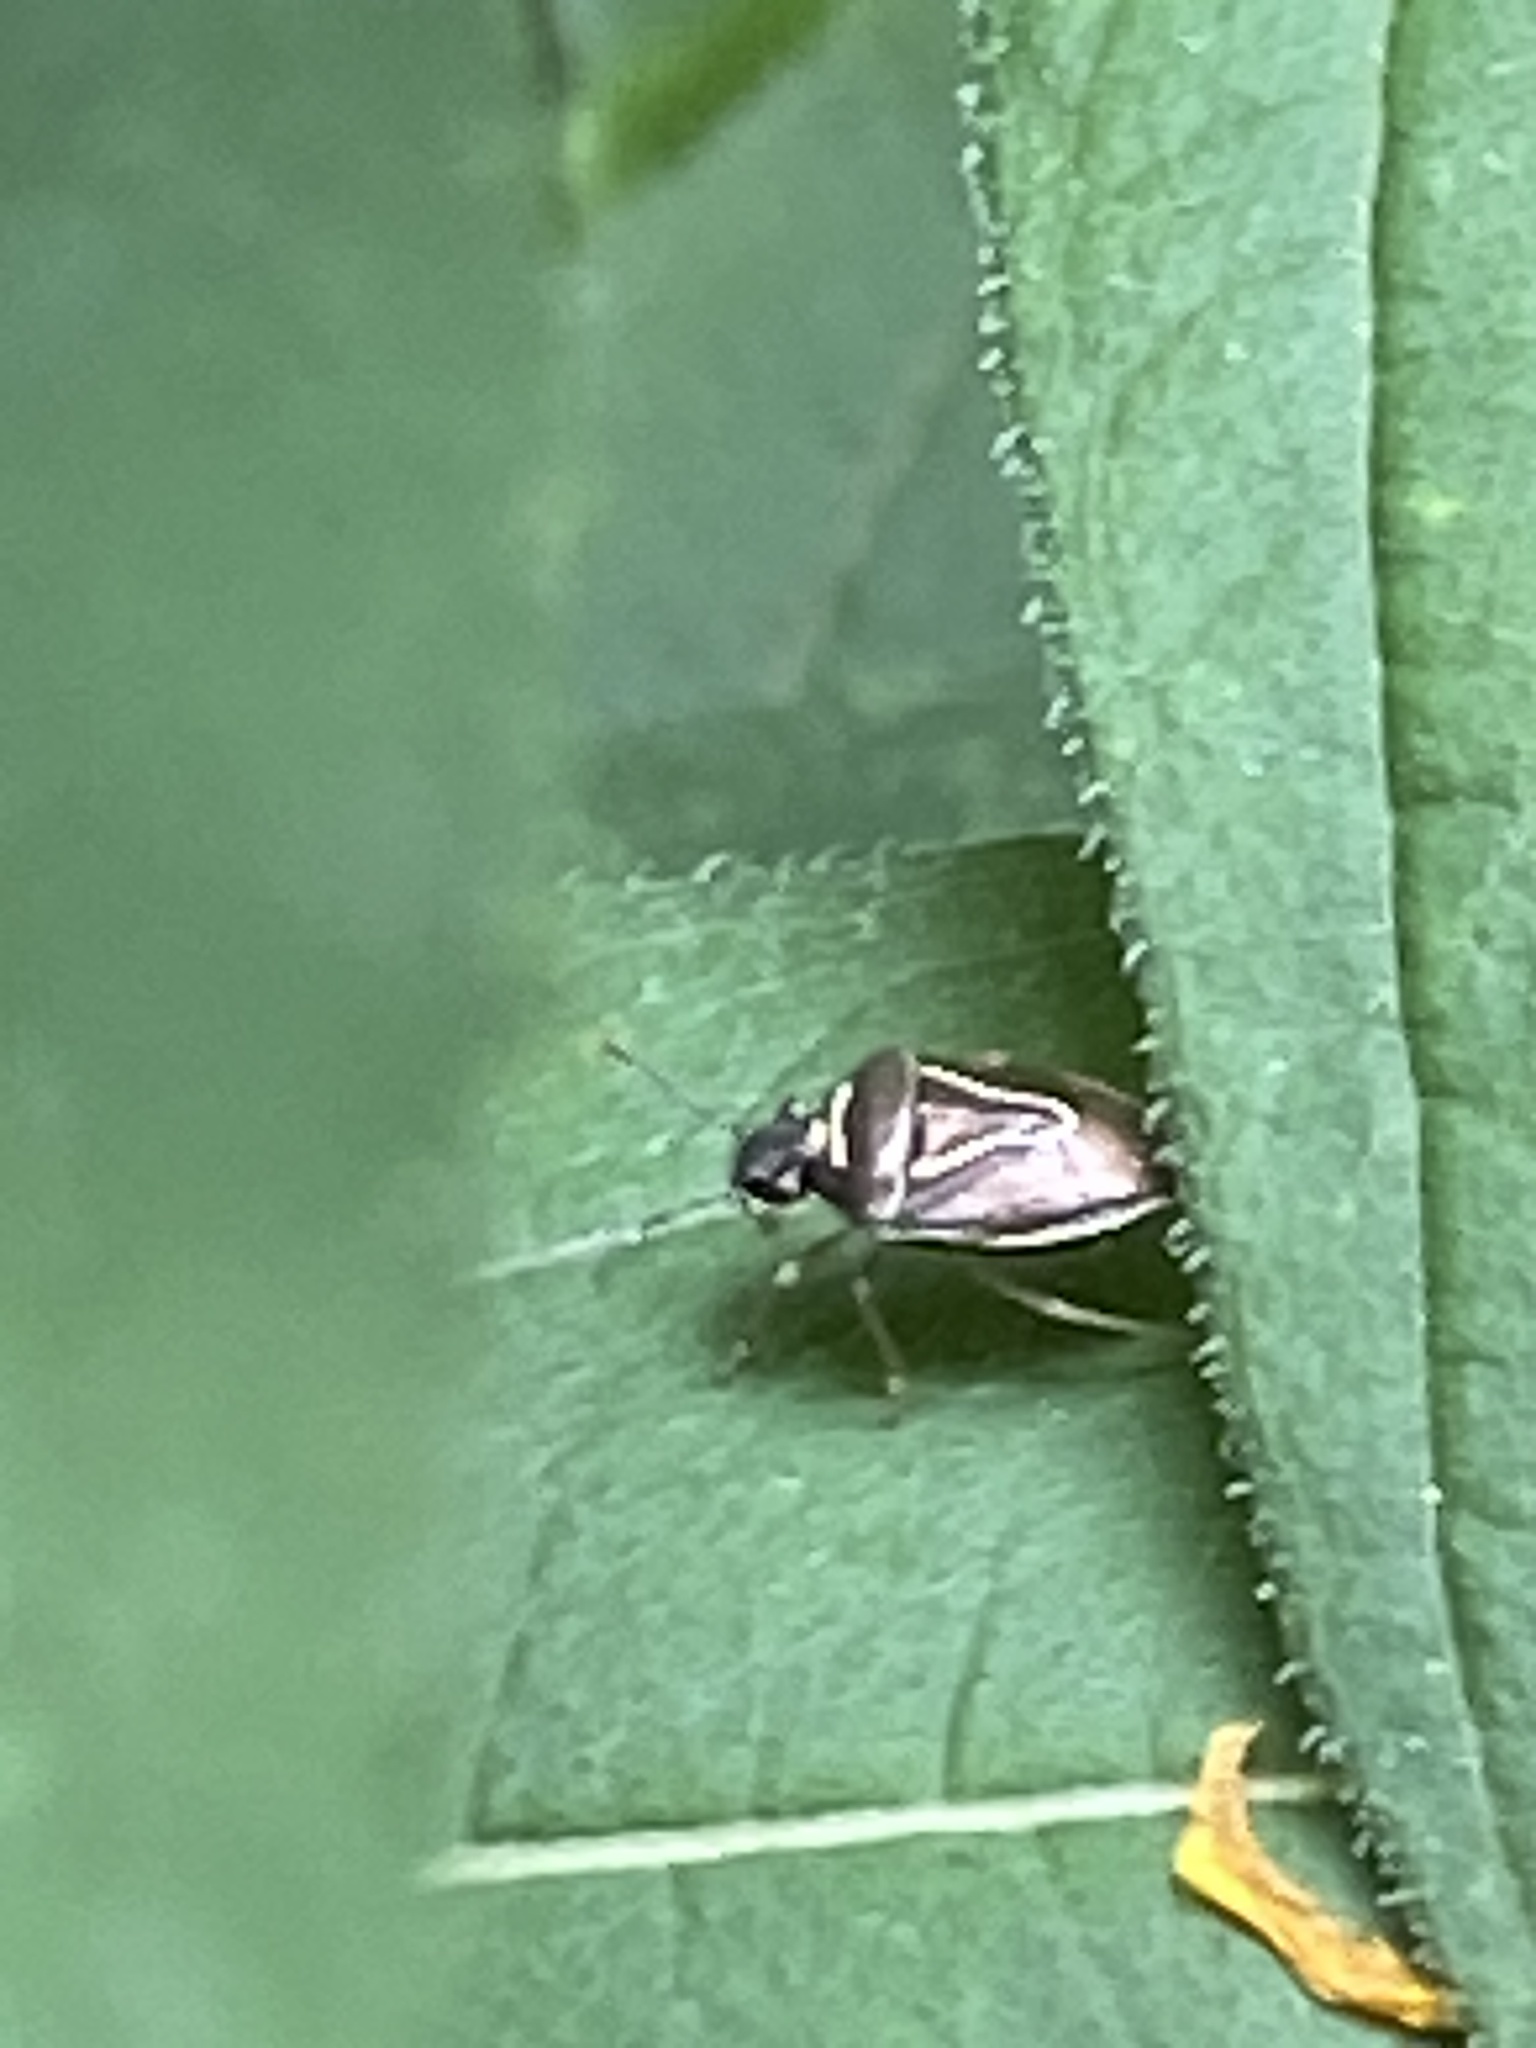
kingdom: Animalia
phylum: Arthropoda
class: Insecta
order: Hemiptera
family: Pentatomidae
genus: Mormidea
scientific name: Mormidea lugens
